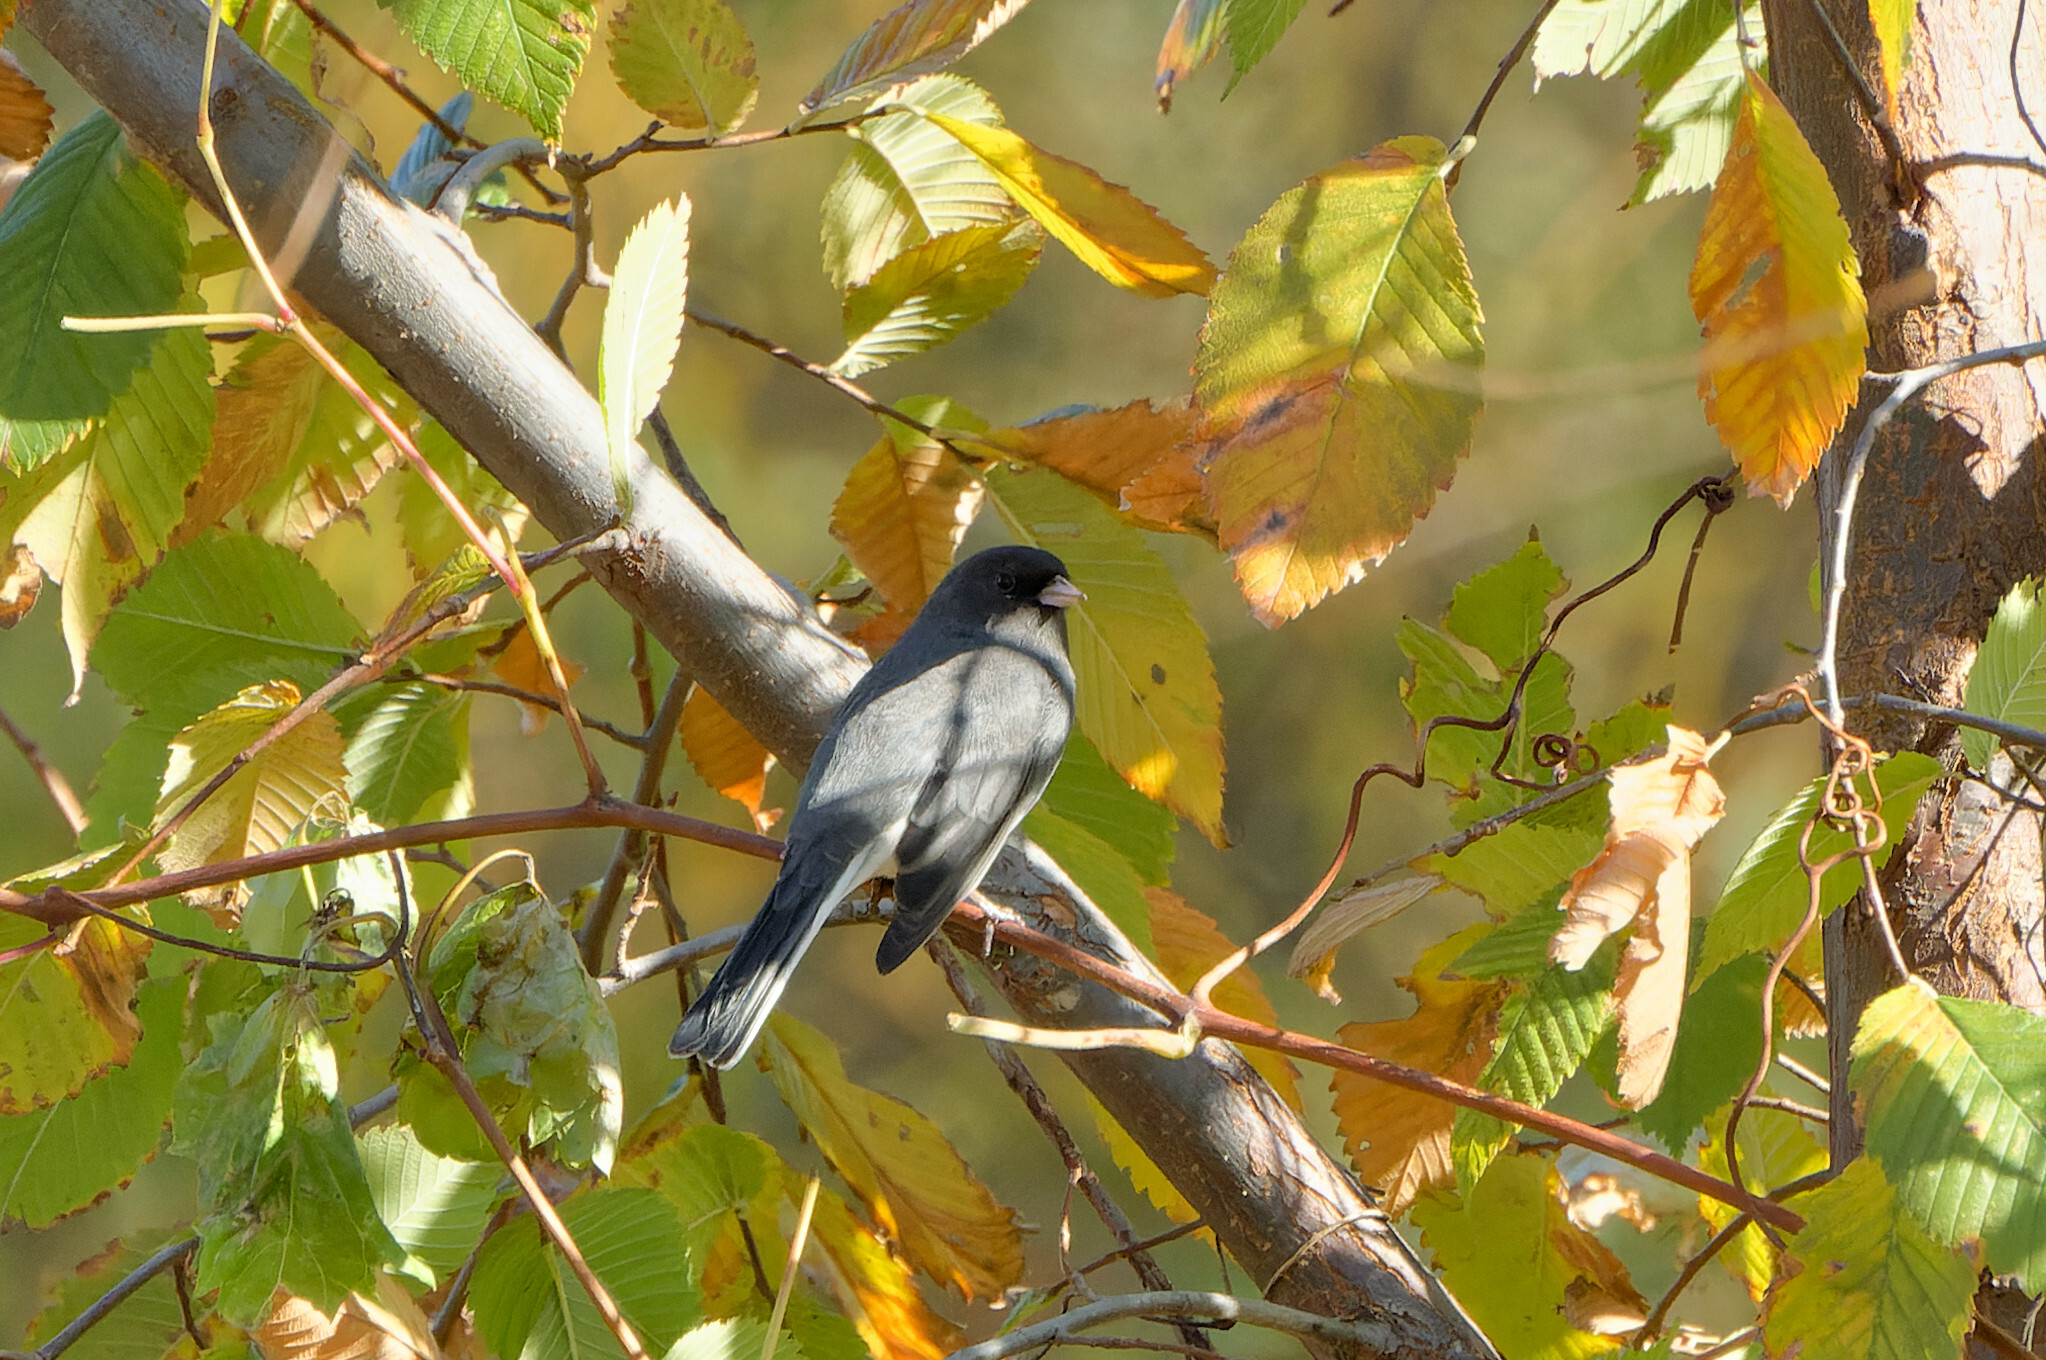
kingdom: Animalia
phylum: Chordata
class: Aves
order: Passeriformes
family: Passerellidae
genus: Junco
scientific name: Junco hyemalis
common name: Dark-eyed junco
